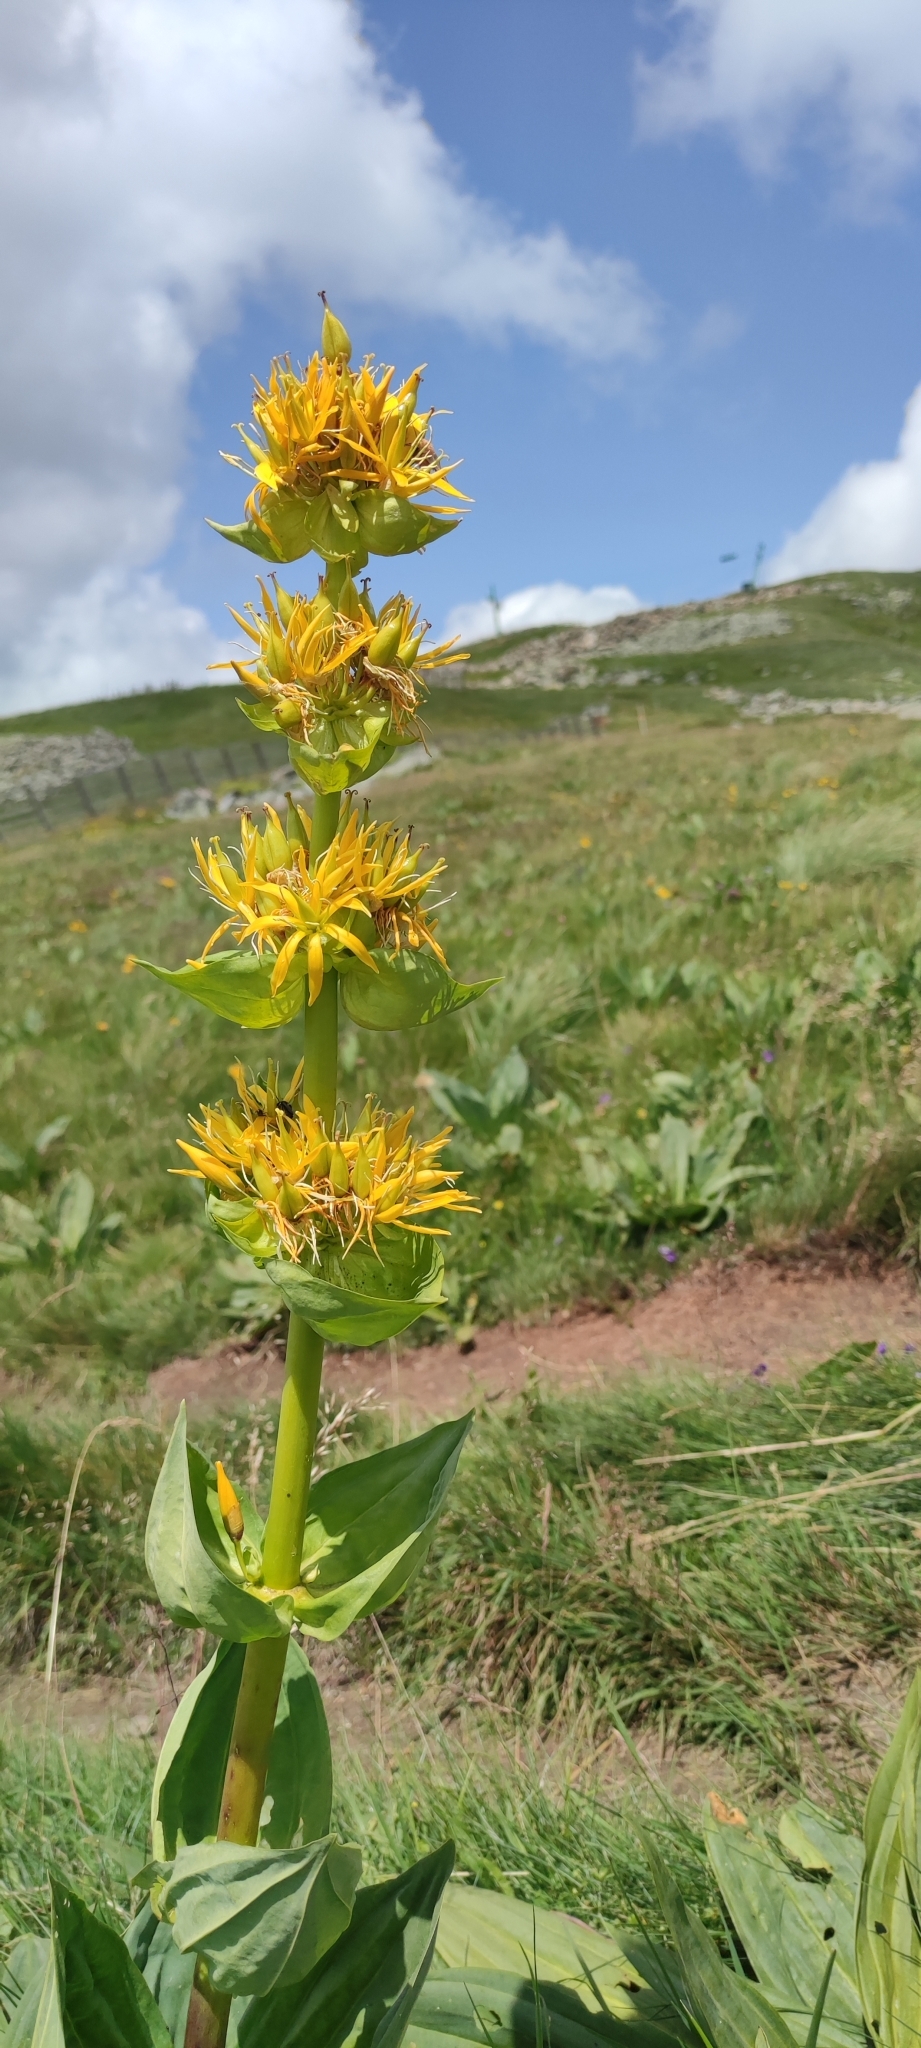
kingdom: Plantae
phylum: Tracheophyta
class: Magnoliopsida
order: Gentianales
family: Gentianaceae
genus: Gentiana
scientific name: Gentiana lutea
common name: Great yellow gentian
